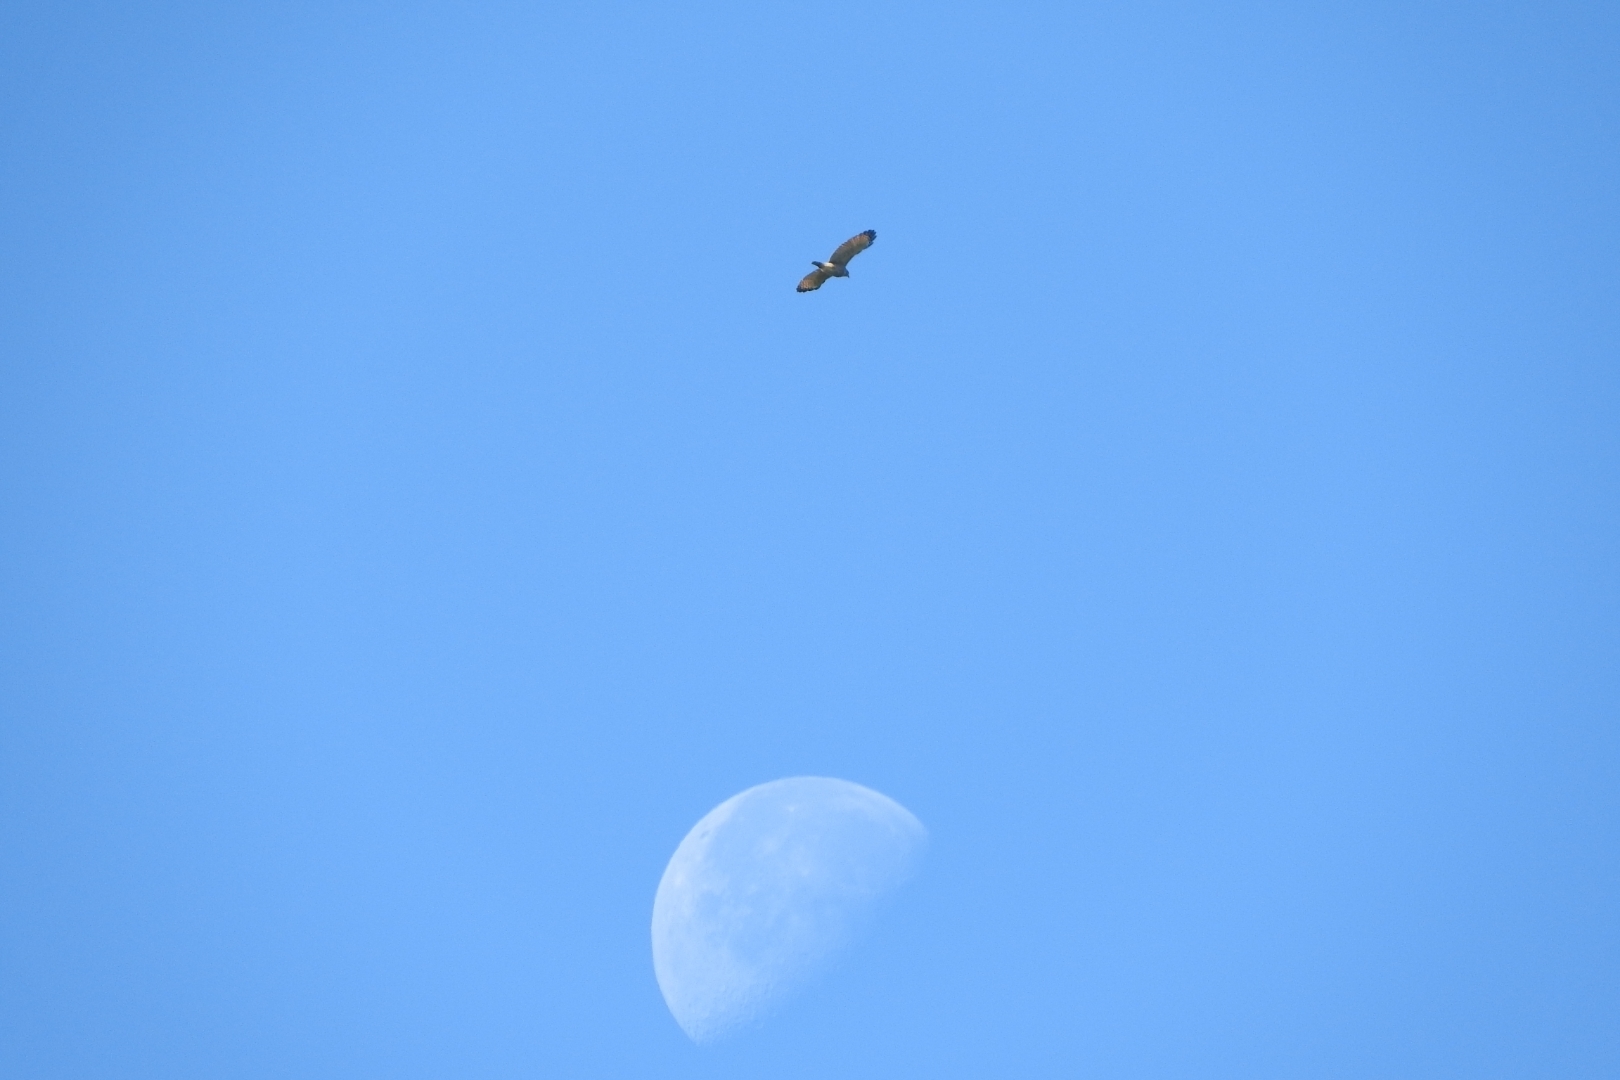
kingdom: Animalia
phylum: Chordata
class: Aves
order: Accipitriformes
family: Accipitridae
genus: Rupornis
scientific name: Rupornis magnirostris
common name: Roadside hawk
